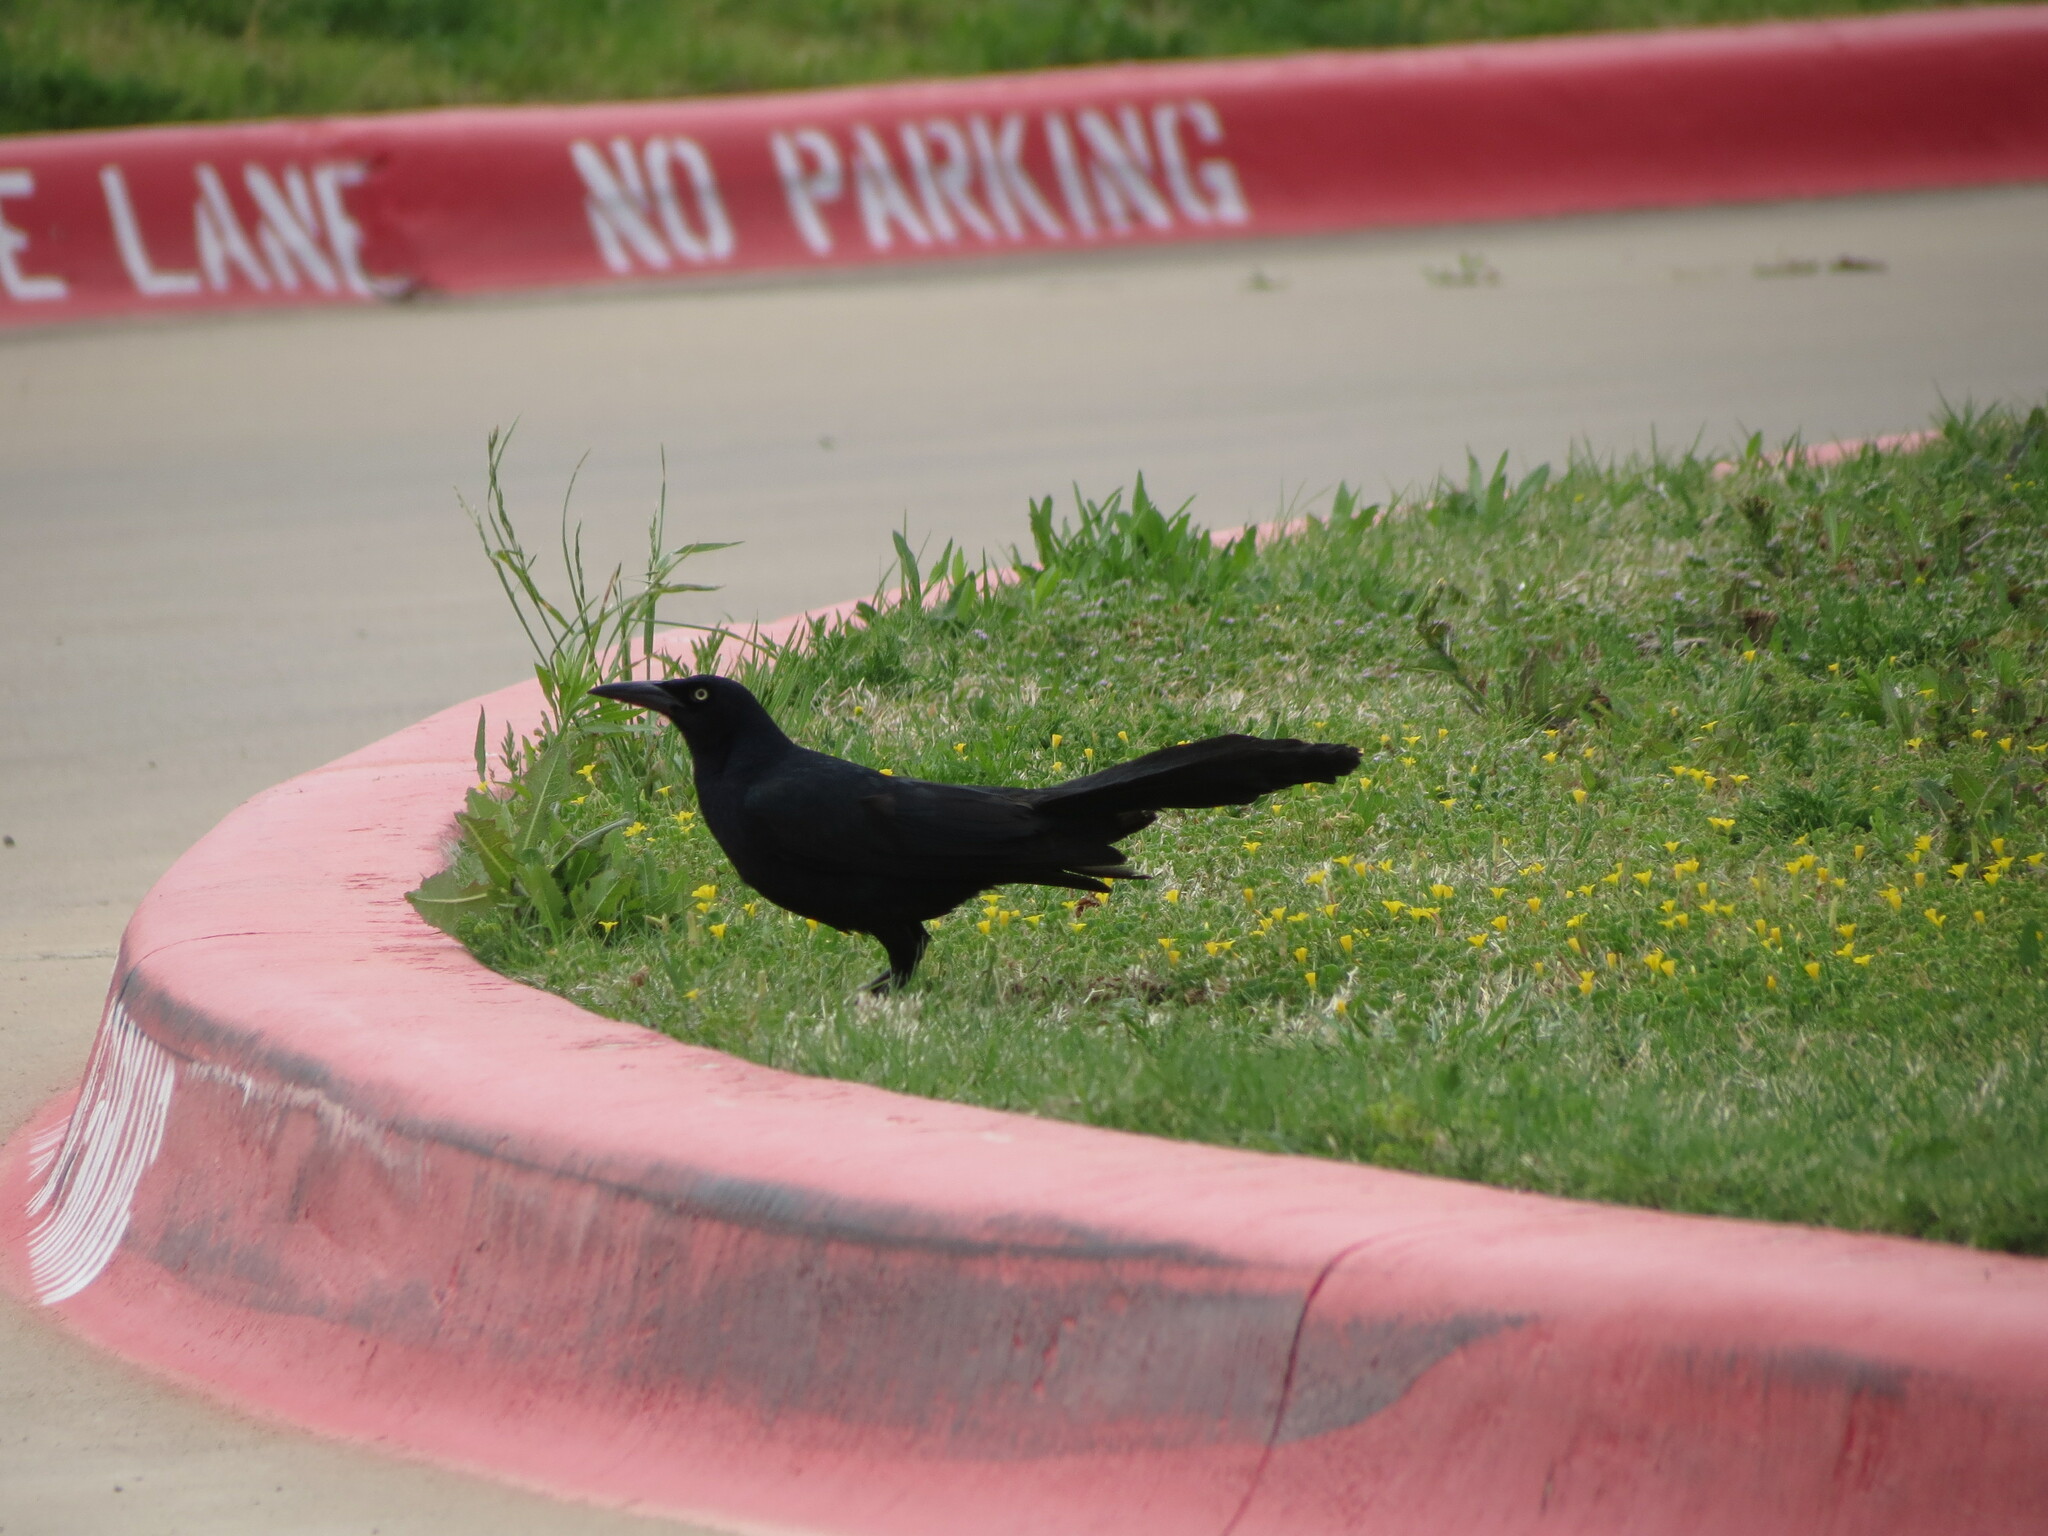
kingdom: Animalia
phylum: Chordata
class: Aves
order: Passeriformes
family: Icteridae
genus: Quiscalus
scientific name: Quiscalus mexicanus
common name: Great-tailed grackle
